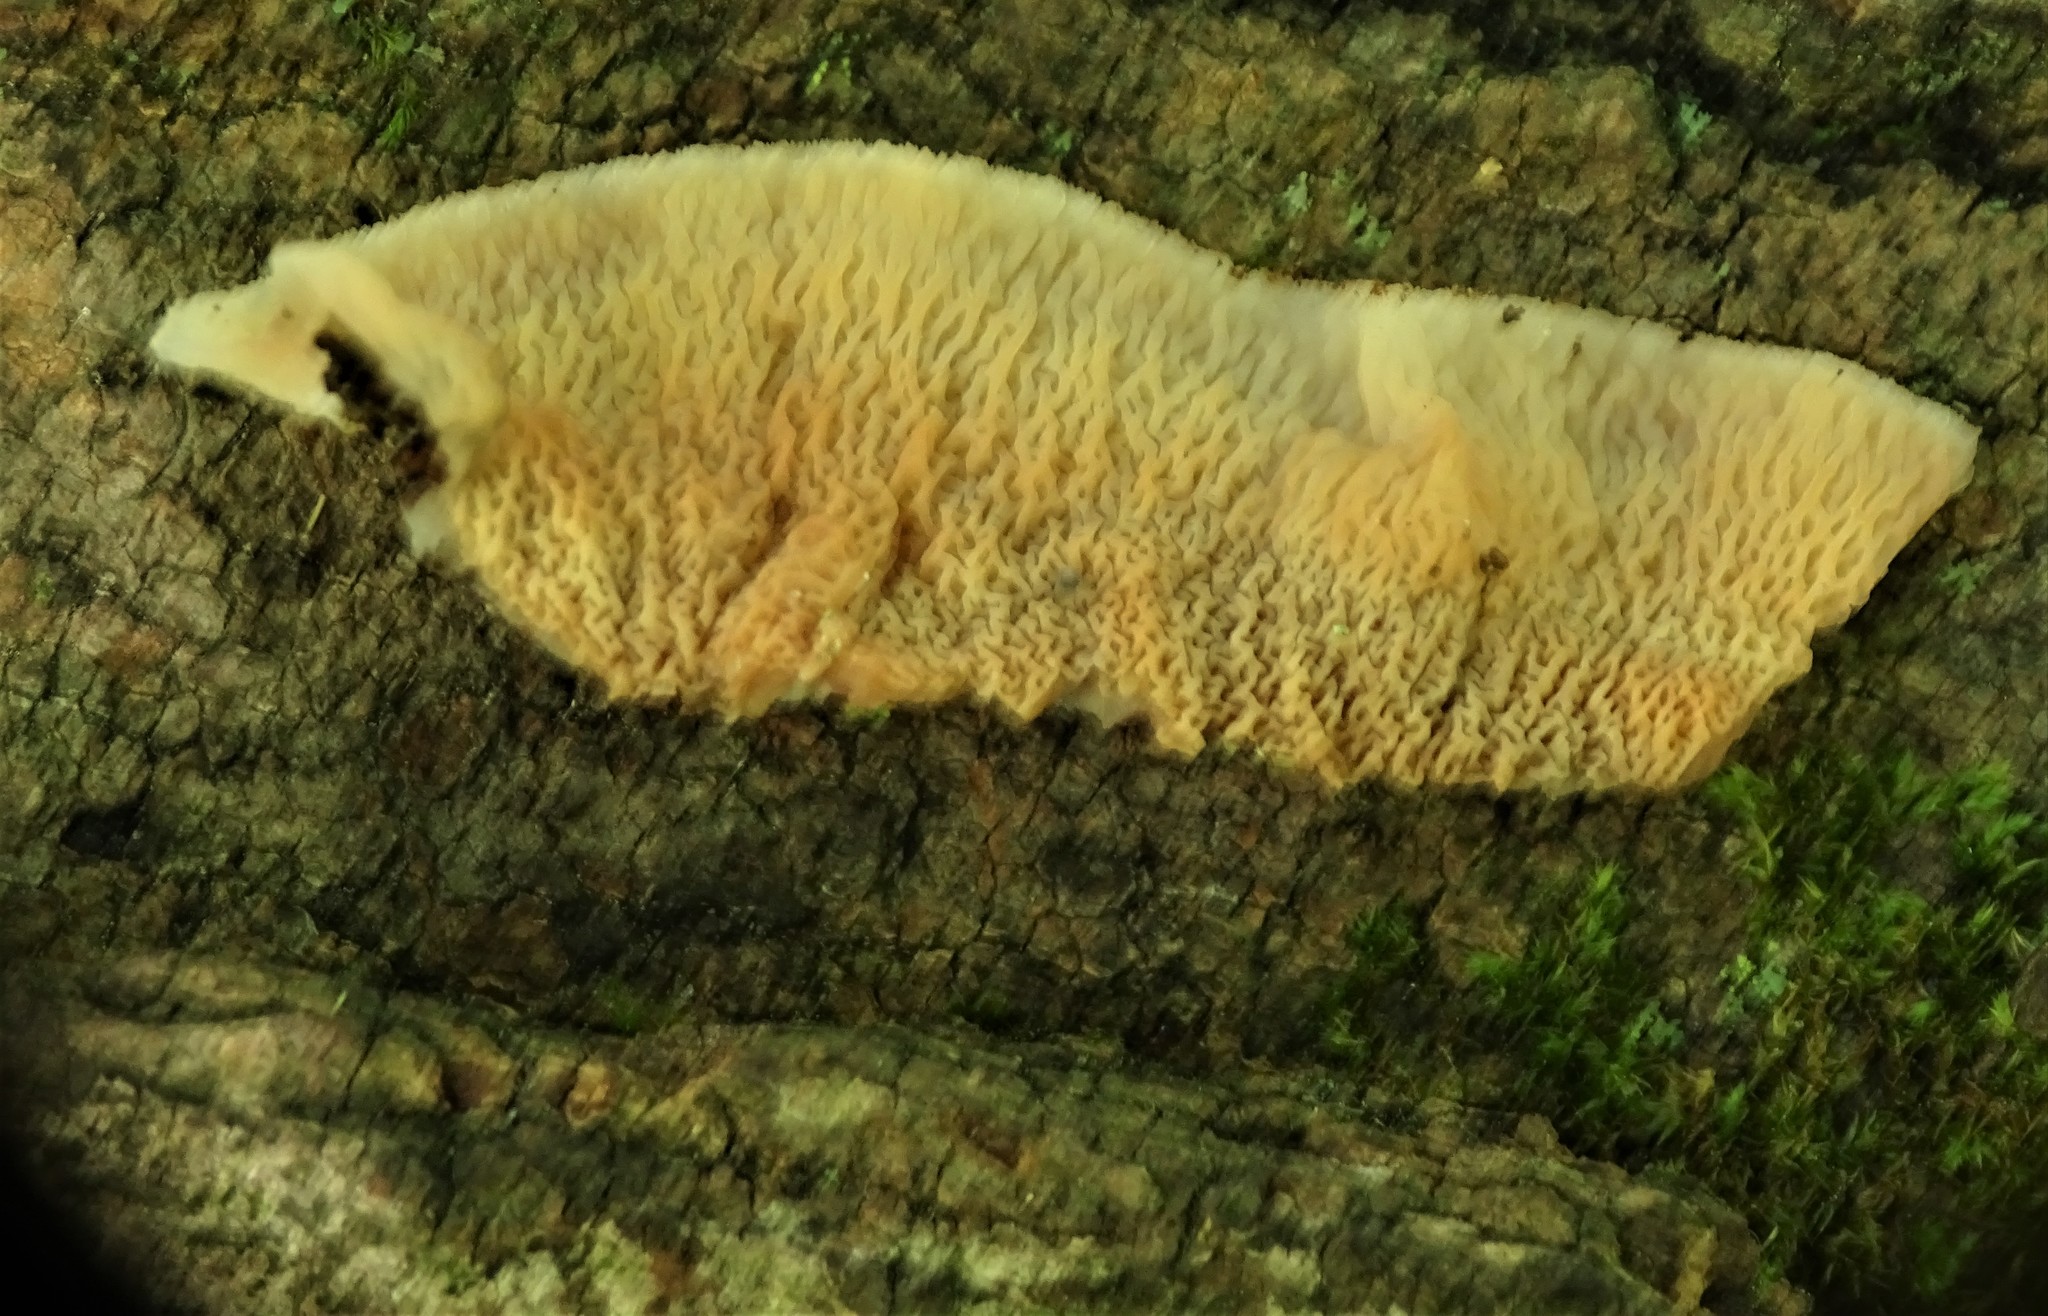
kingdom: Fungi
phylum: Basidiomycota
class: Agaricomycetes
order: Polyporales
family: Meruliaceae
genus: Phlebia
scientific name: Phlebia tremellosa
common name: Jelly rot
